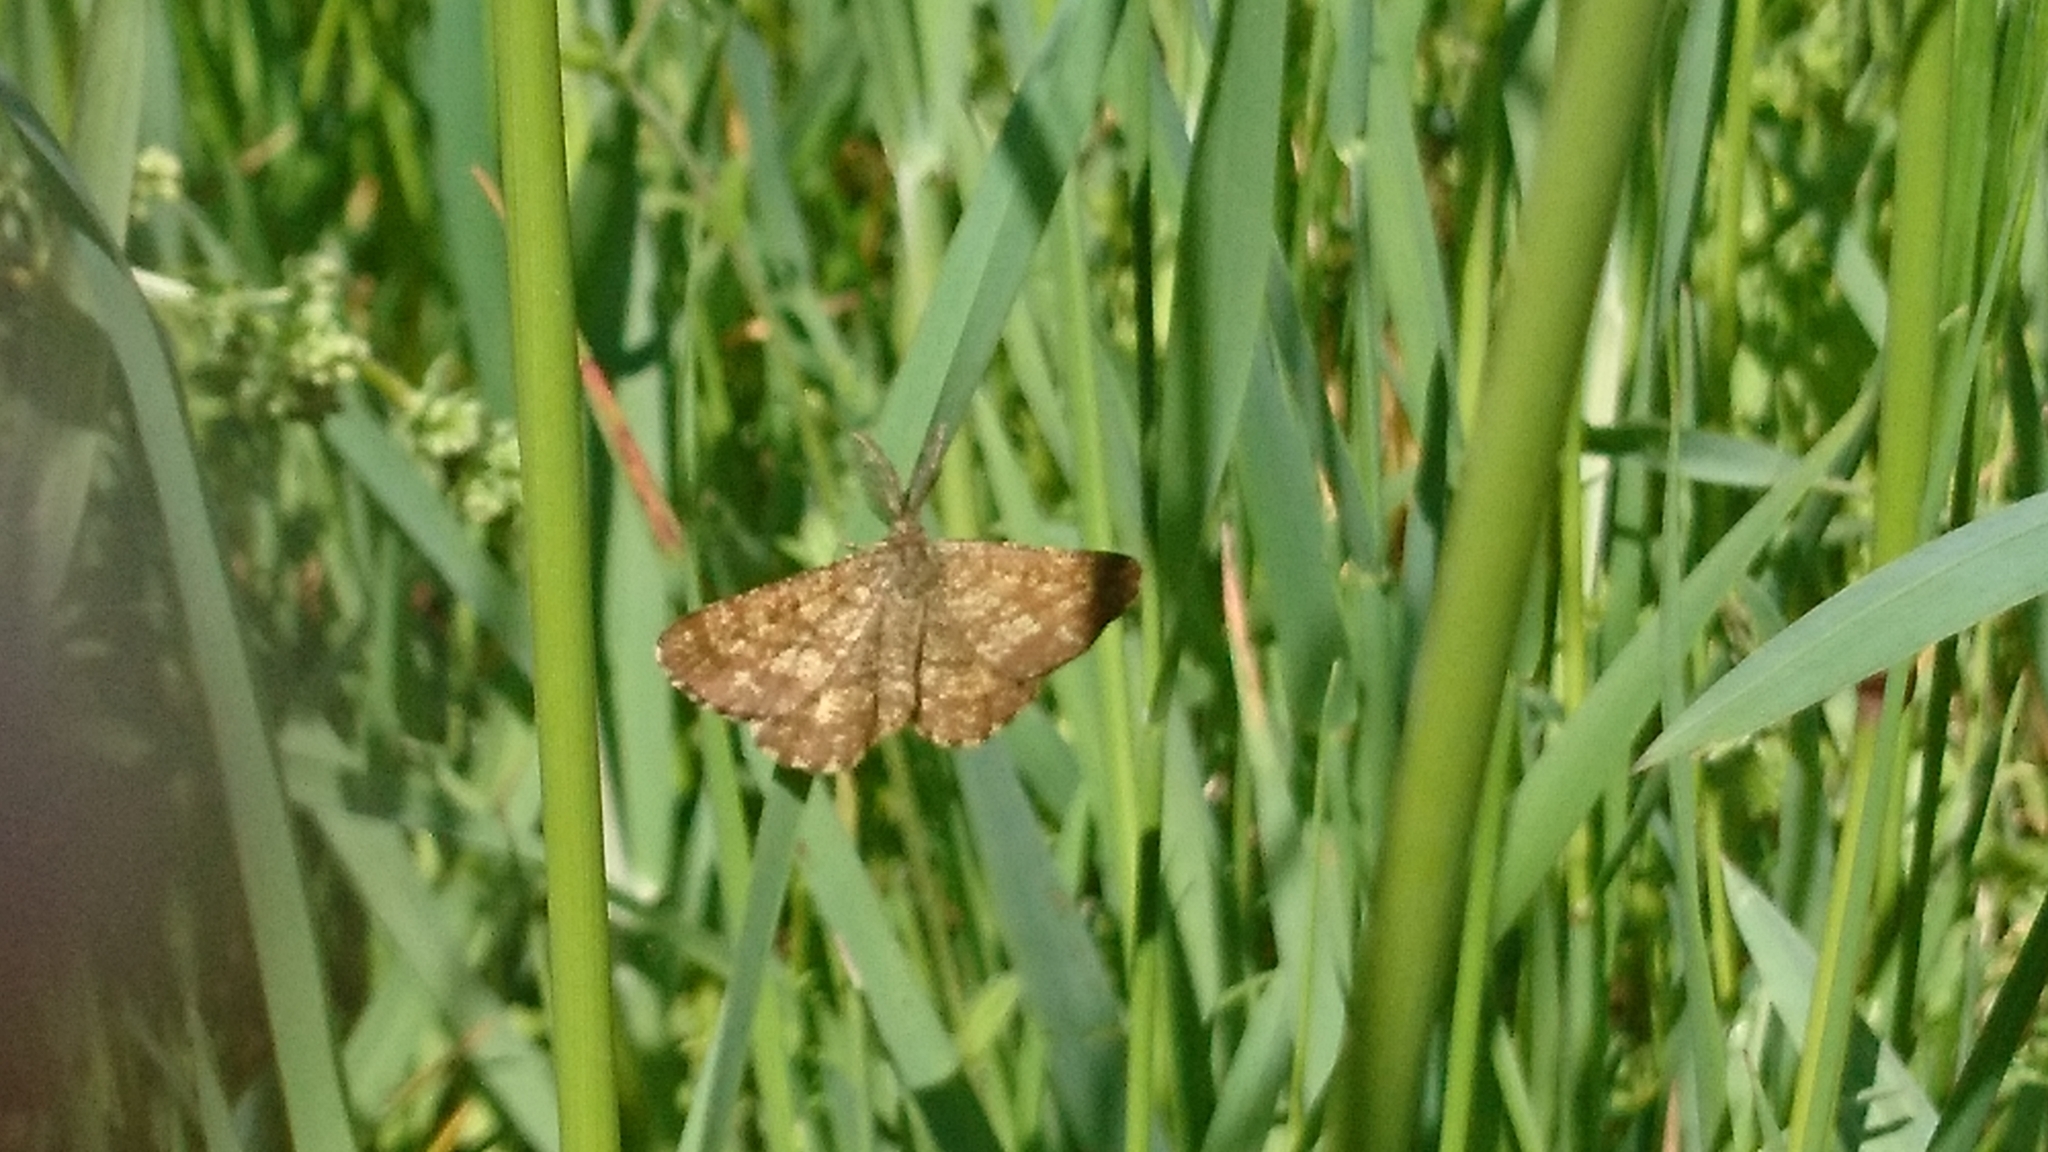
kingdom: Animalia
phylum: Arthropoda
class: Insecta
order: Lepidoptera
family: Geometridae
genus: Ematurga
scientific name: Ematurga atomaria
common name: Common heath
